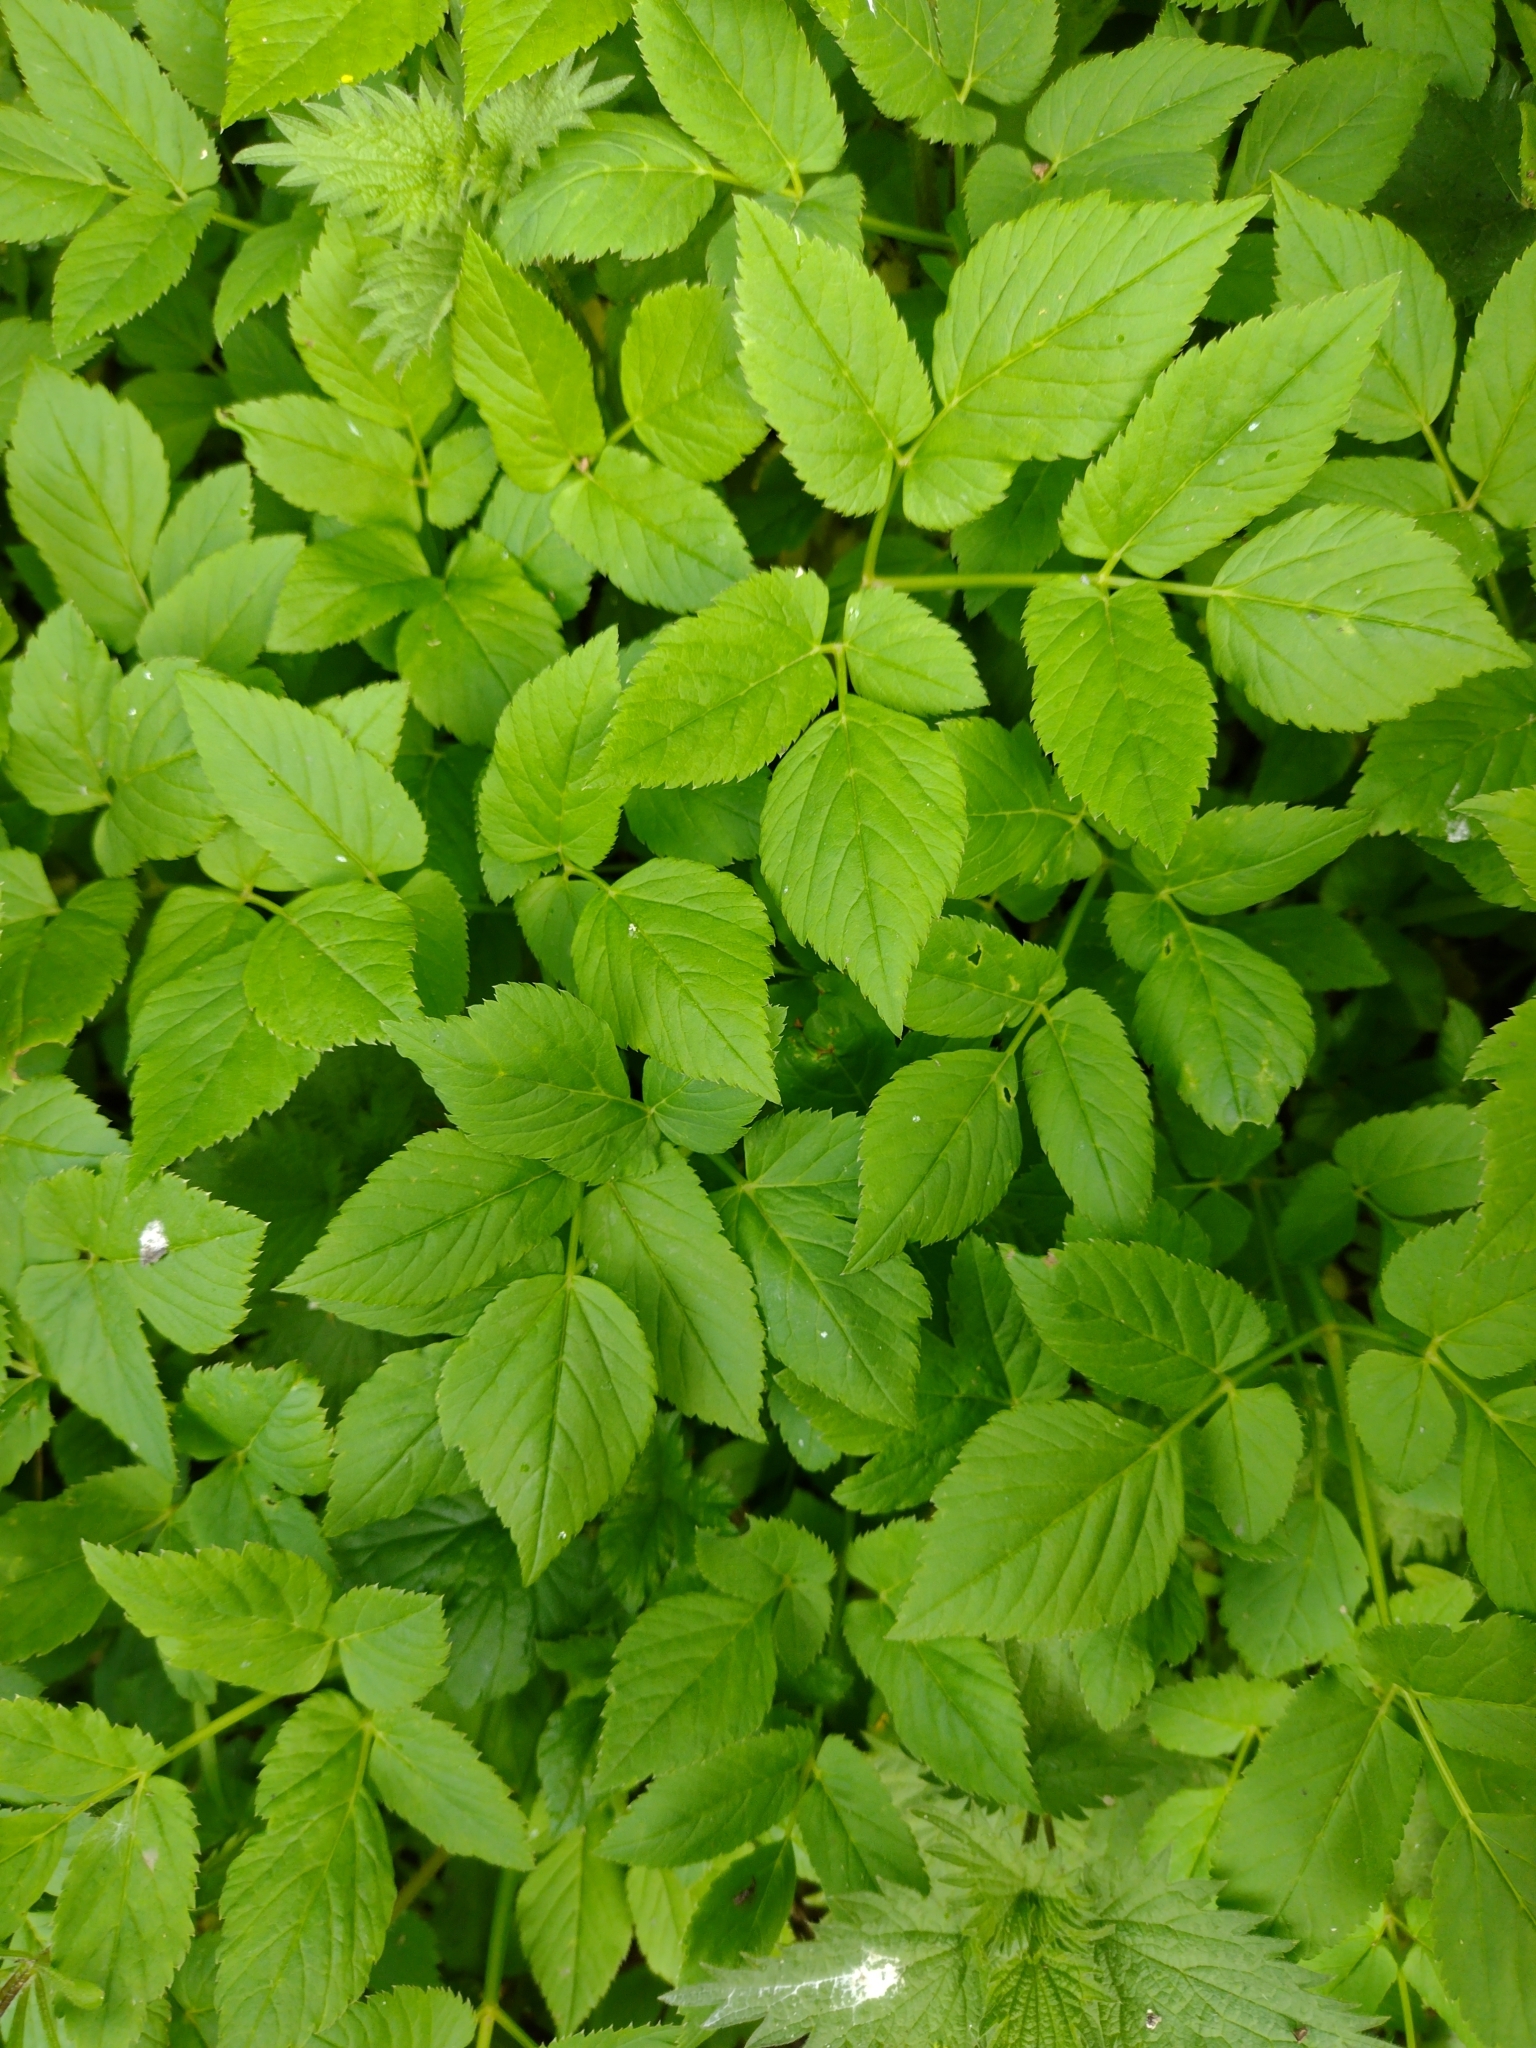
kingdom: Plantae
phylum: Tracheophyta
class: Magnoliopsida
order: Apiales
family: Apiaceae
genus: Aegopodium
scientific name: Aegopodium podagraria
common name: Ground-elder
